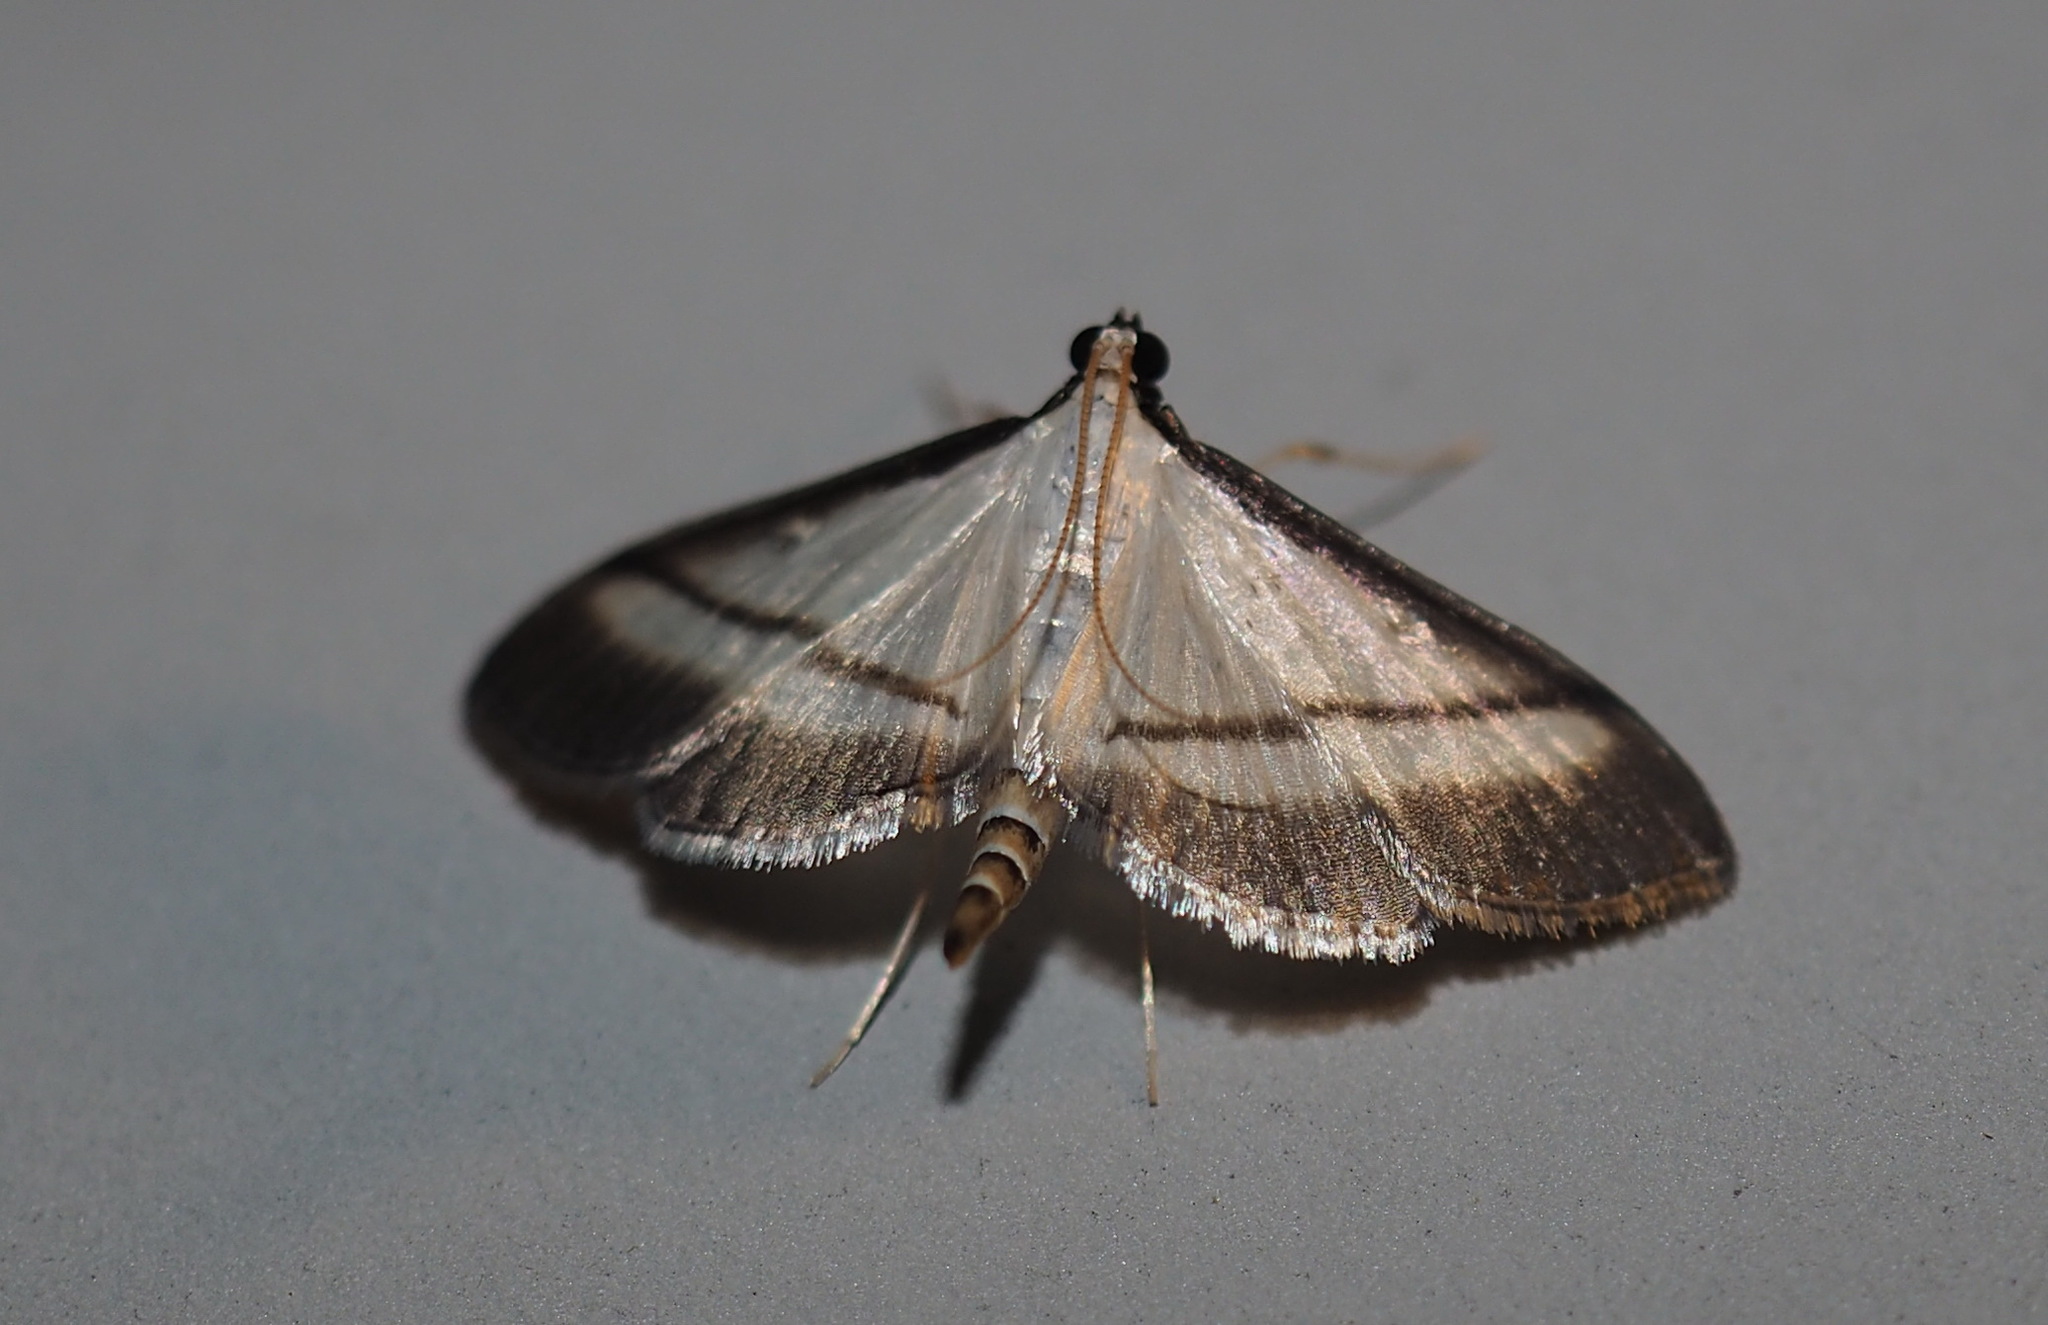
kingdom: Animalia
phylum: Arthropoda
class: Insecta
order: Lepidoptera
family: Crambidae
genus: Bradina
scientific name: Bradina diagonalis
